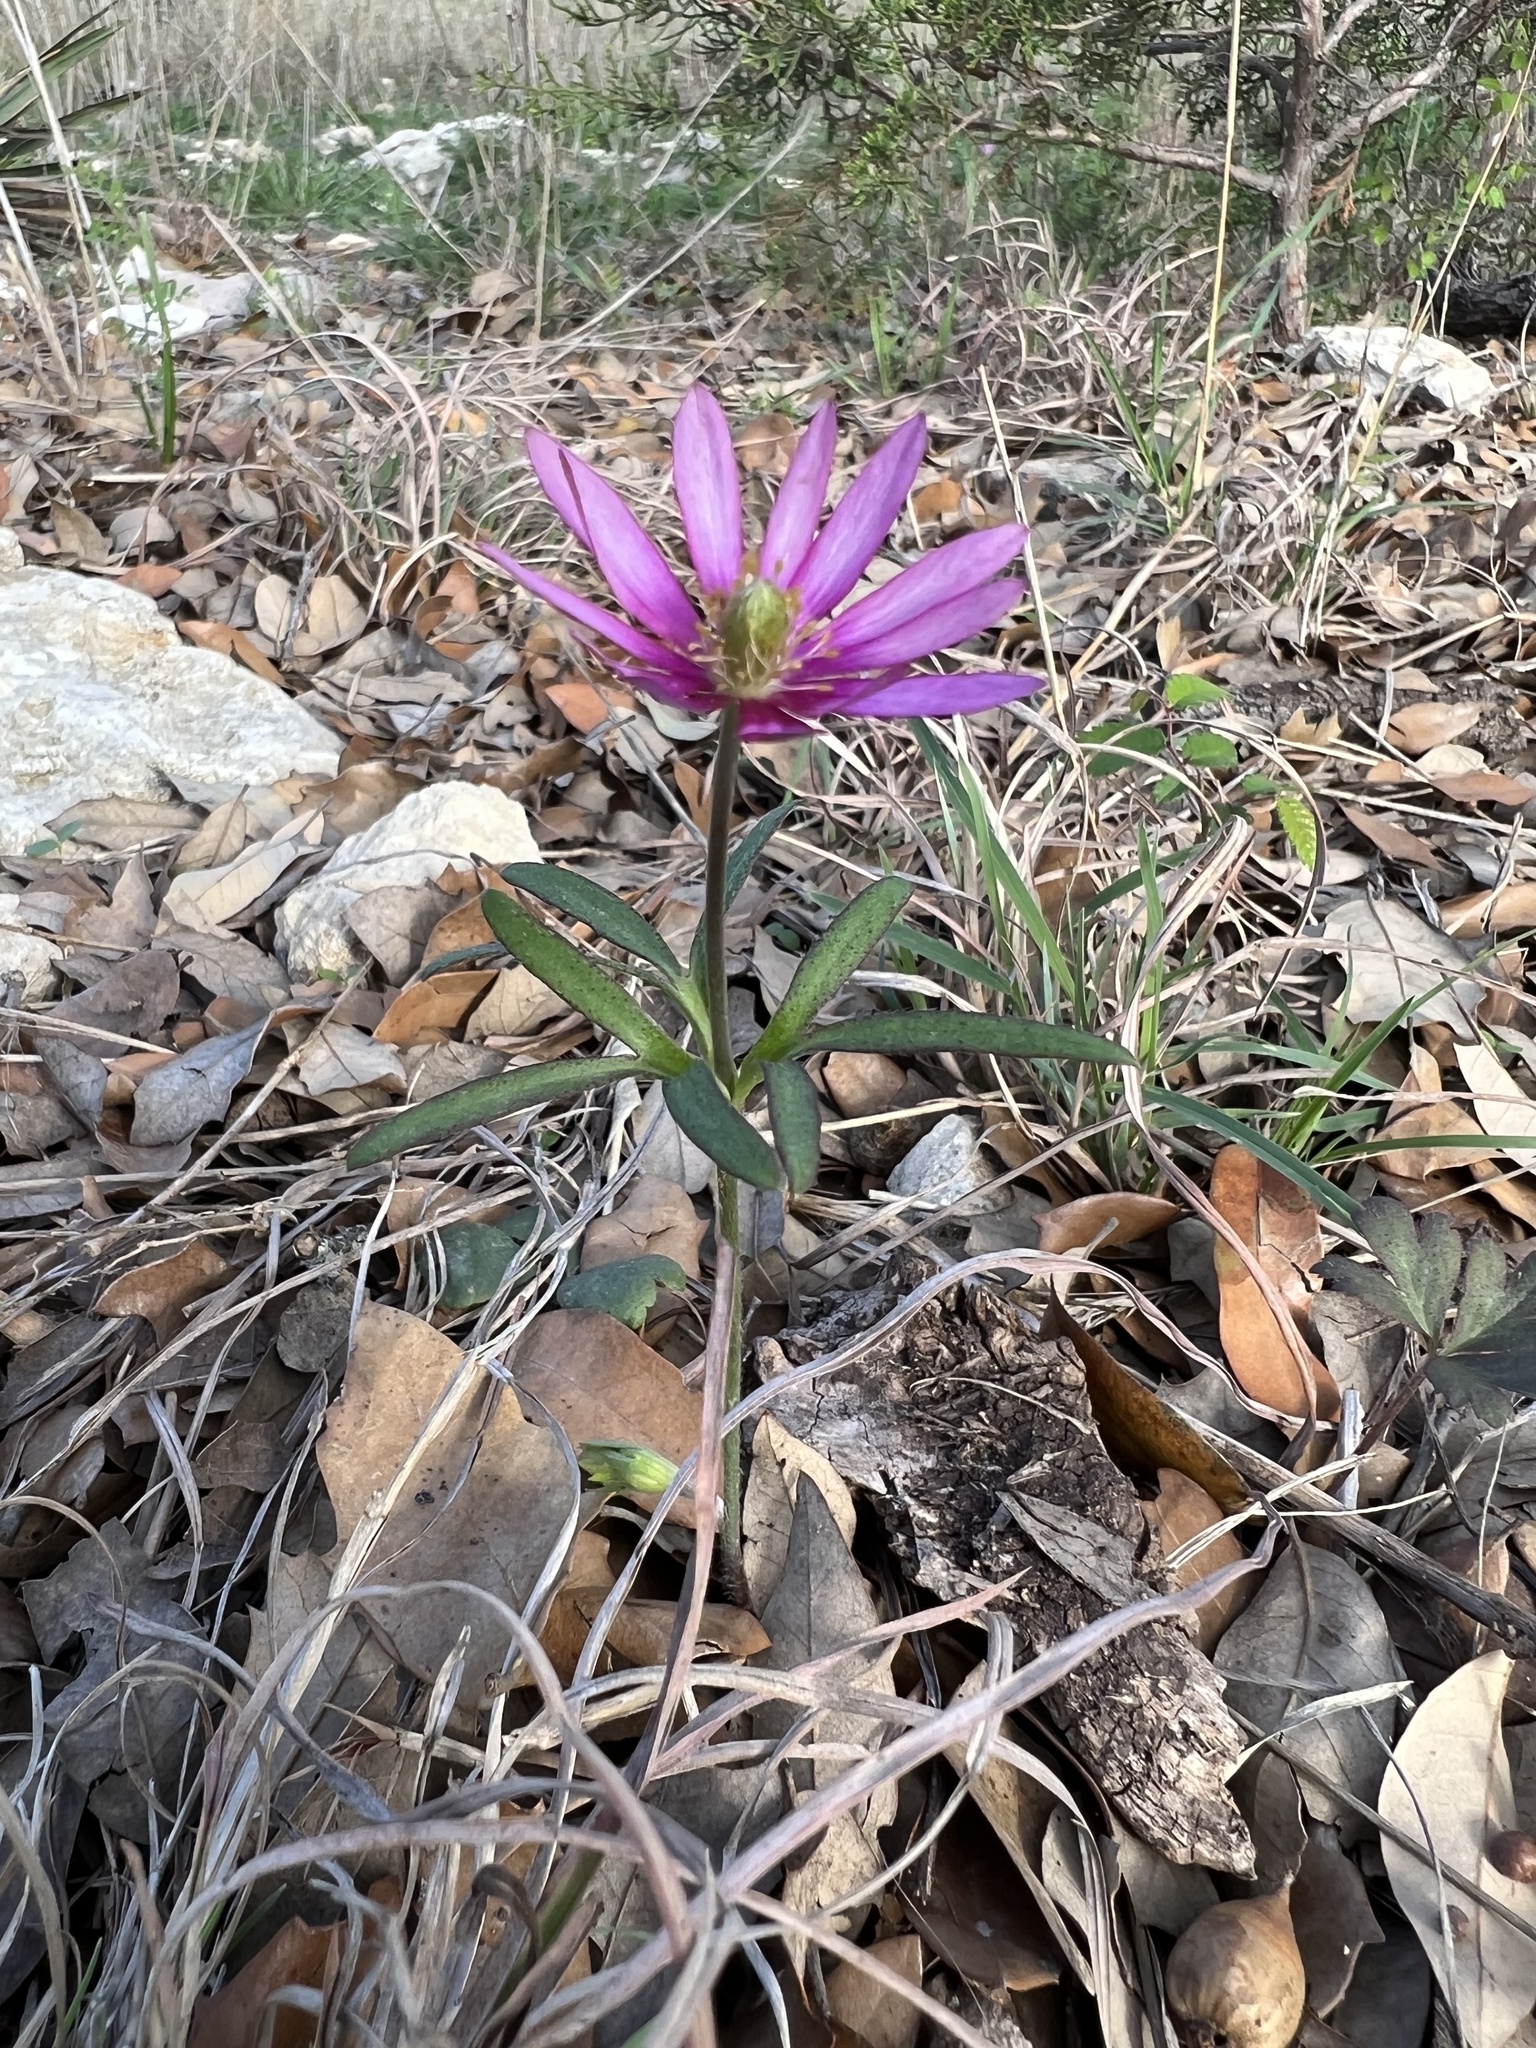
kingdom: Plantae
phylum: Tracheophyta
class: Magnoliopsida
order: Ranunculales
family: Ranunculaceae
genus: Anemone
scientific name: Anemone berlandieri
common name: Ten-petal anemone
